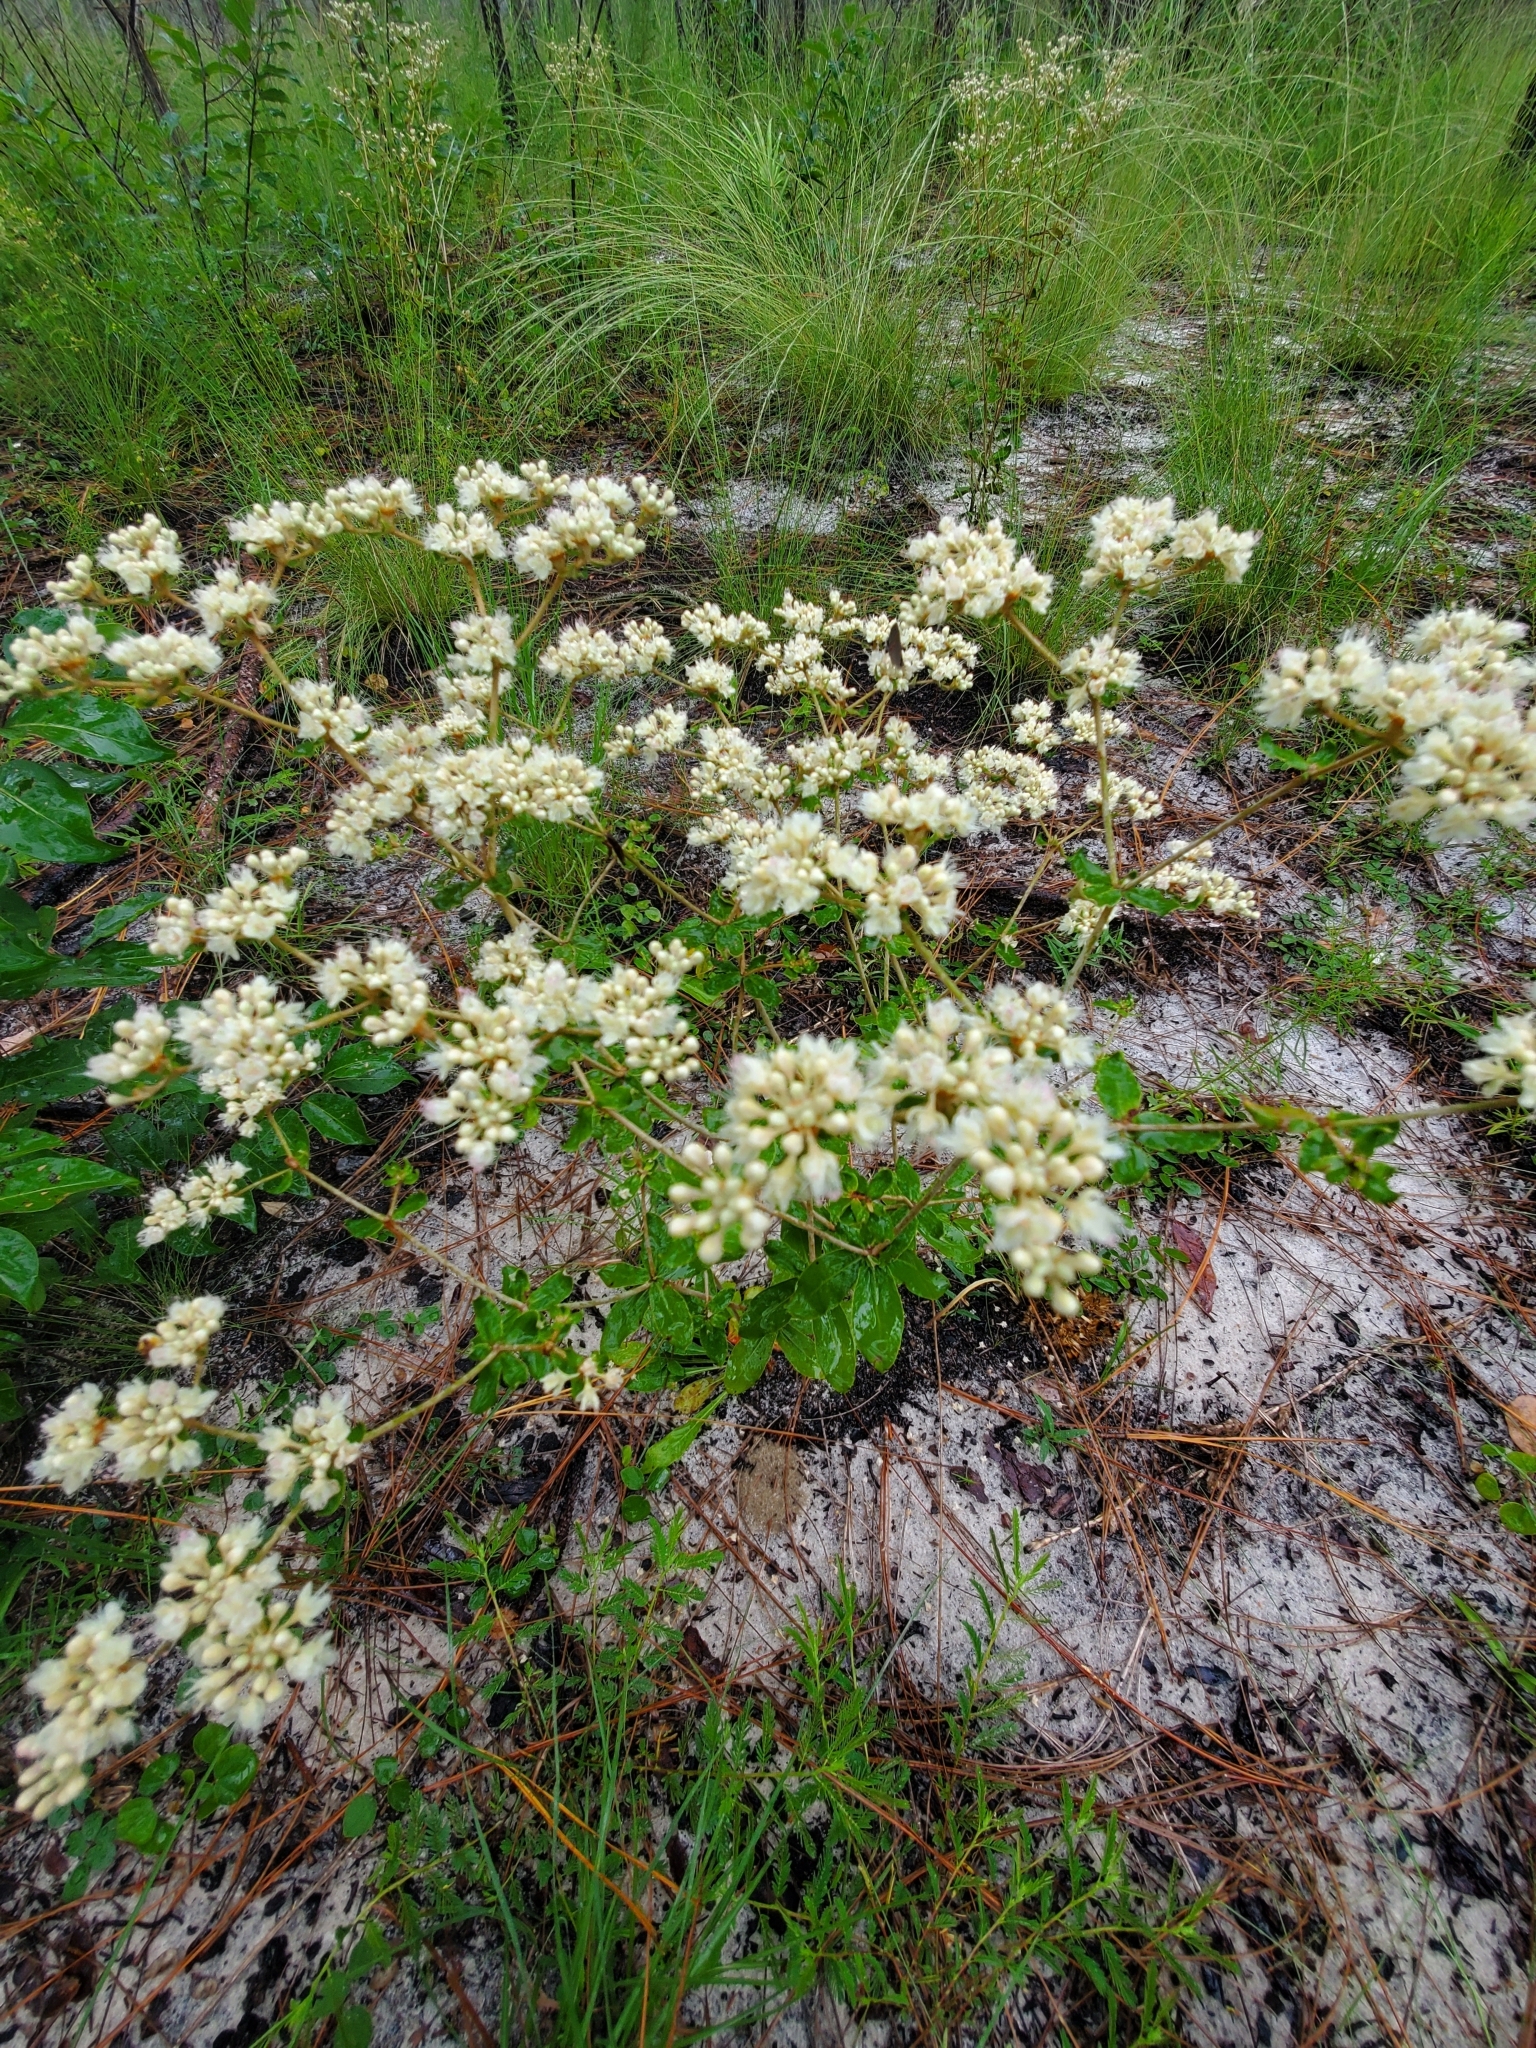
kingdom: Plantae
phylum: Tracheophyta
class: Magnoliopsida
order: Caryophyllales
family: Polygonaceae
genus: Eriogonum
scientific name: Eriogonum tomentosum
